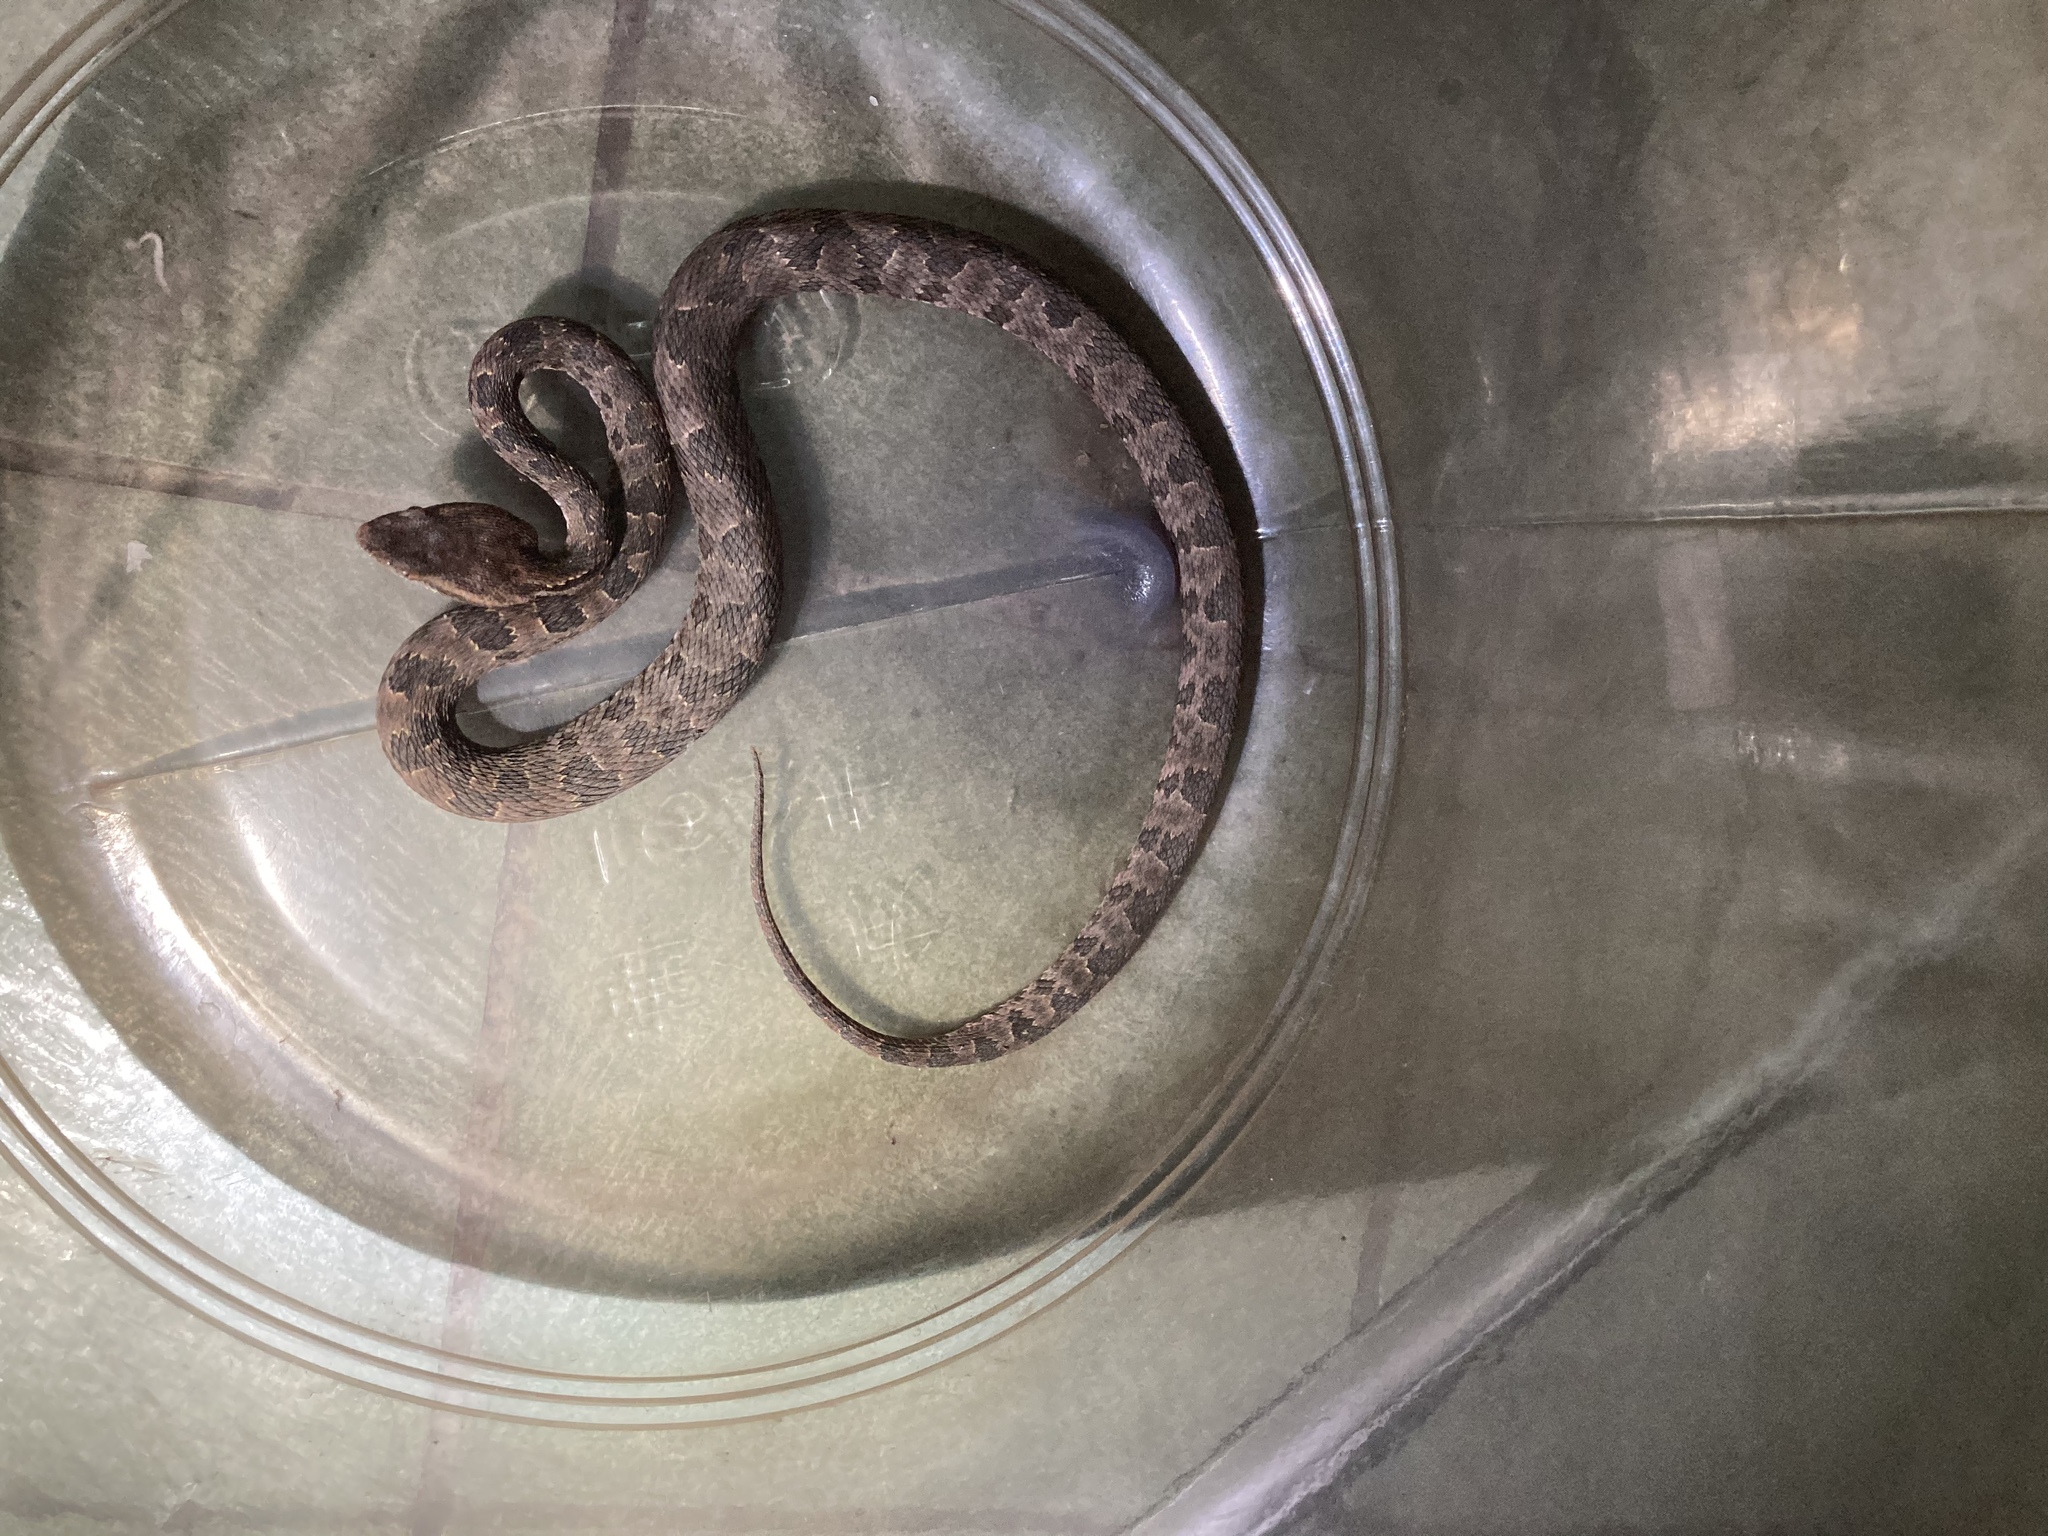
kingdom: Animalia
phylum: Chordata
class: Squamata
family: Viperidae
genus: Protobothrops
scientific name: Protobothrops mucrosquamatus
